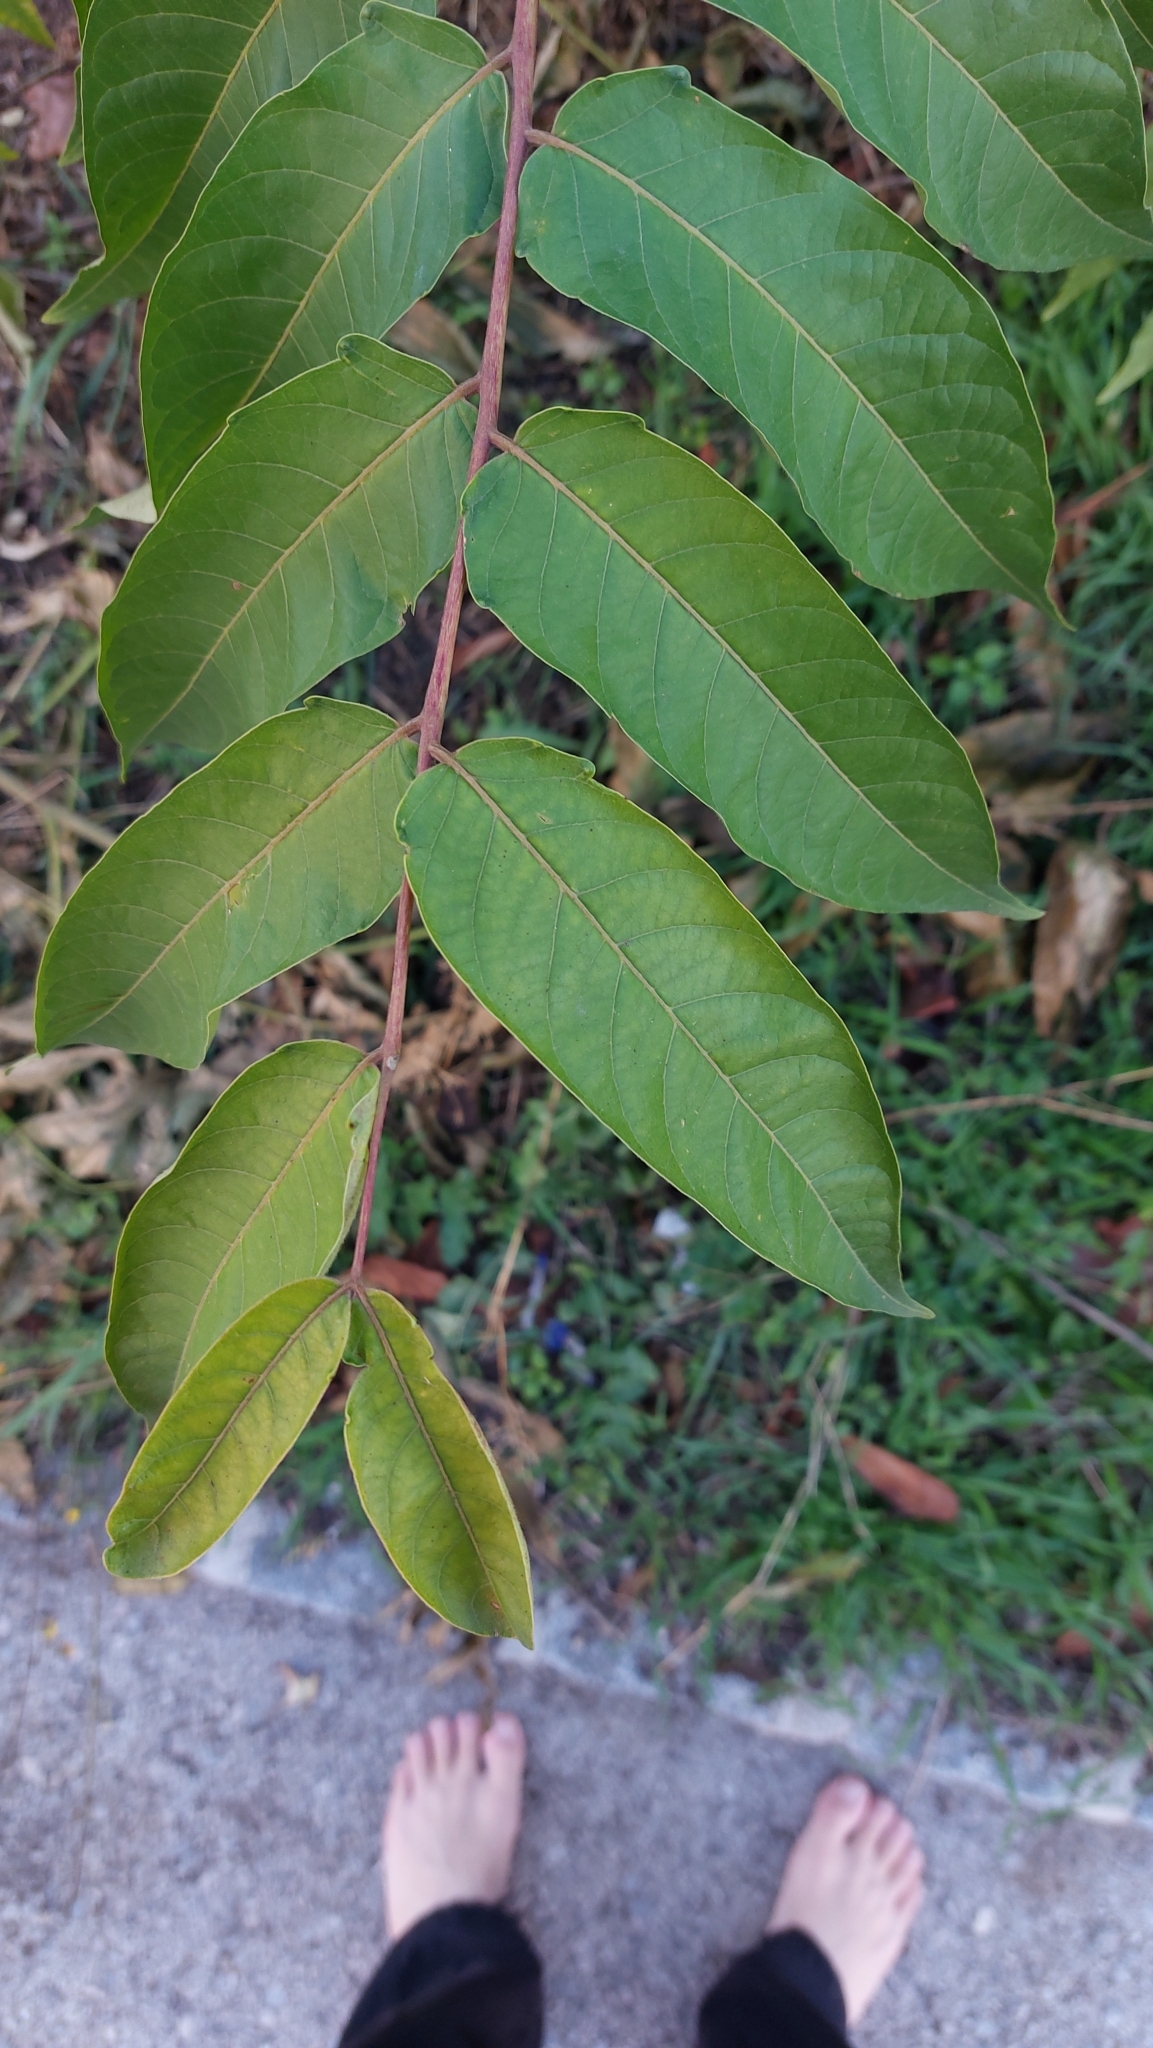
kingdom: Plantae
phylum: Tracheophyta
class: Magnoliopsida
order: Sapindales
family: Simaroubaceae
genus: Ailanthus
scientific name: Ailanthus altissima
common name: Tree-of-heaven
